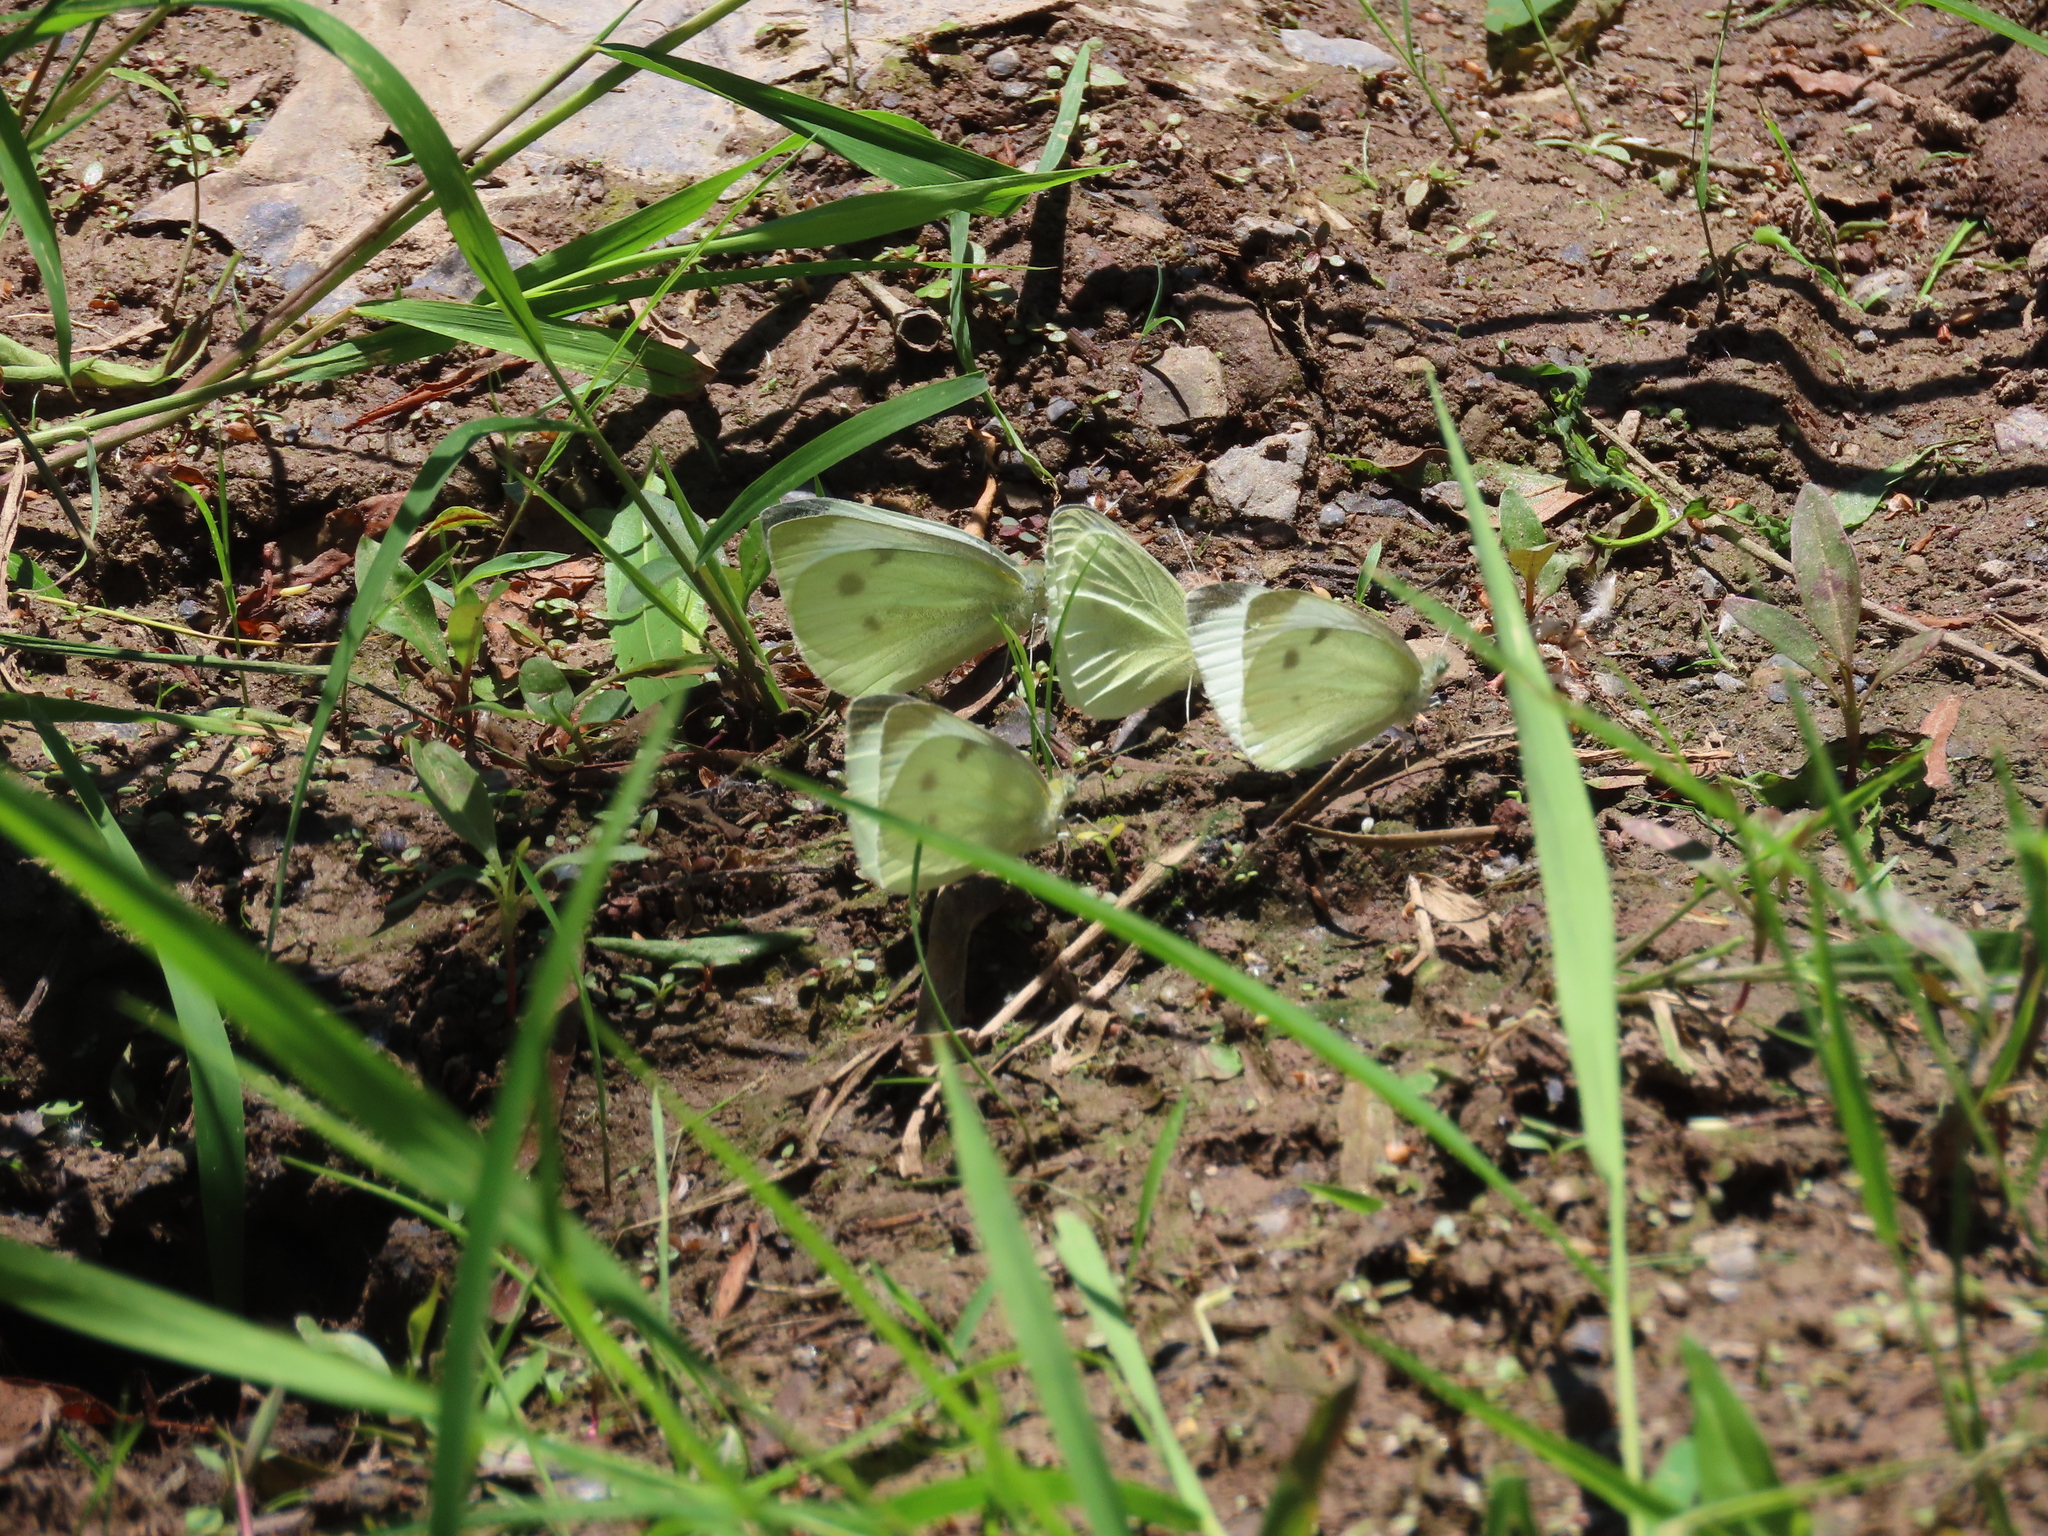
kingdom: Animalia
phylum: Arthropoda
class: Insecta
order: Lepidoptera
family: Pieridae
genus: Pieris
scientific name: Pieris rapae
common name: Small white
